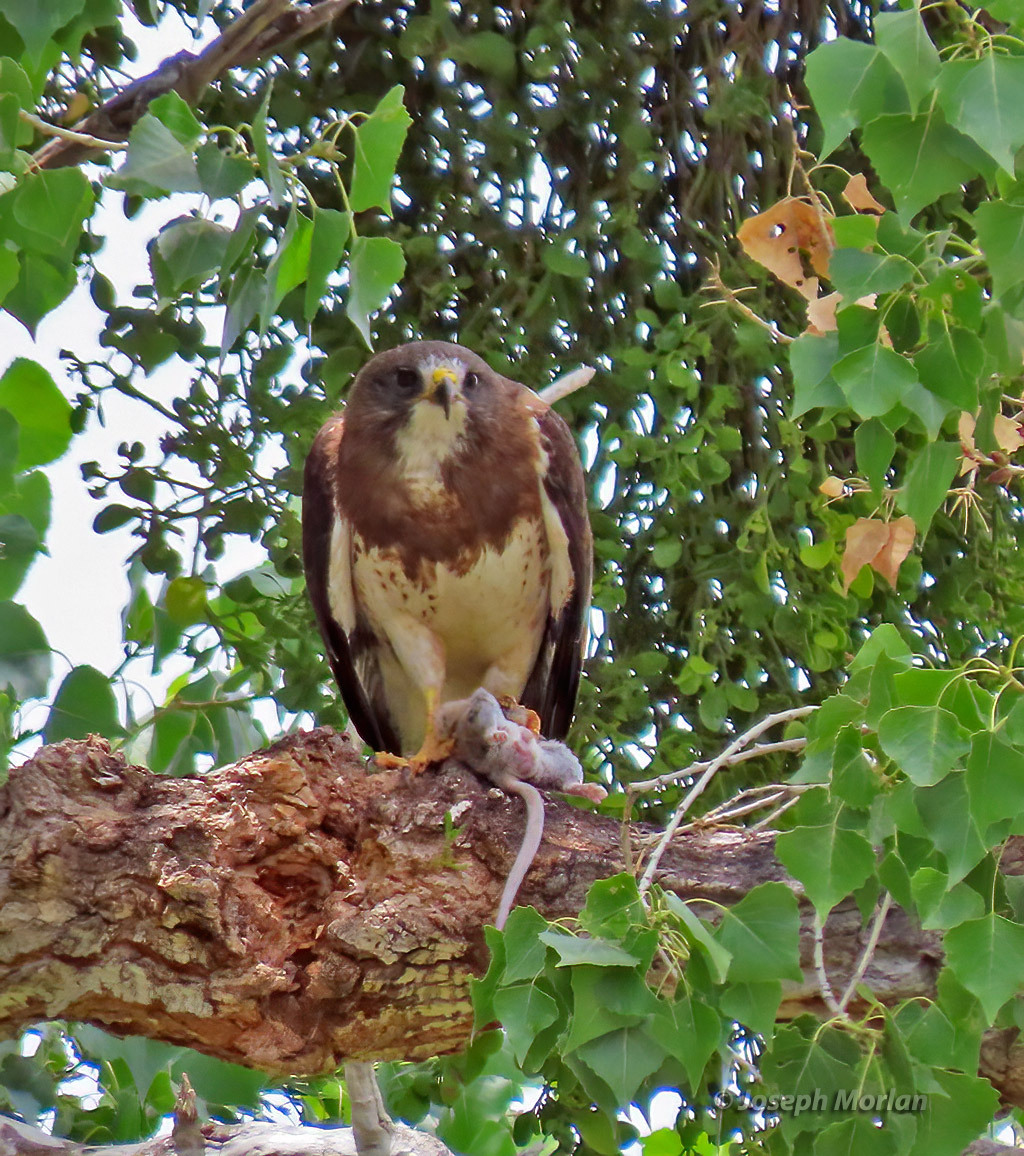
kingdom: Animalia
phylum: Chordata
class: Aves
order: Accipitriformes
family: Accipitridae
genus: Buteo
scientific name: Buteo swainsoni
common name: Swainson's hawk
